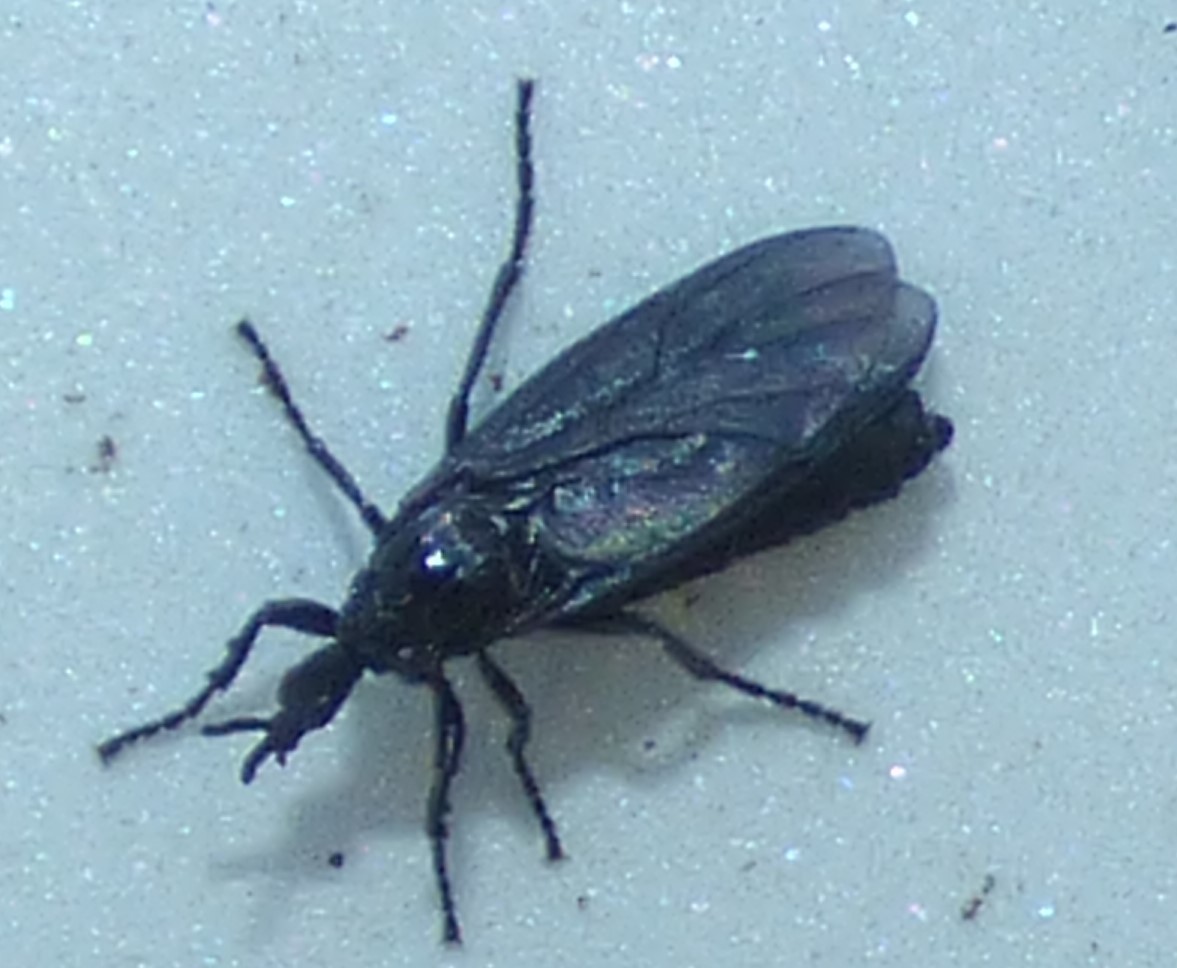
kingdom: Animalia
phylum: Arthropoda
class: Insecta
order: Diptera
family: Bibionidae
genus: Dilophus
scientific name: Dilophus orbatus
